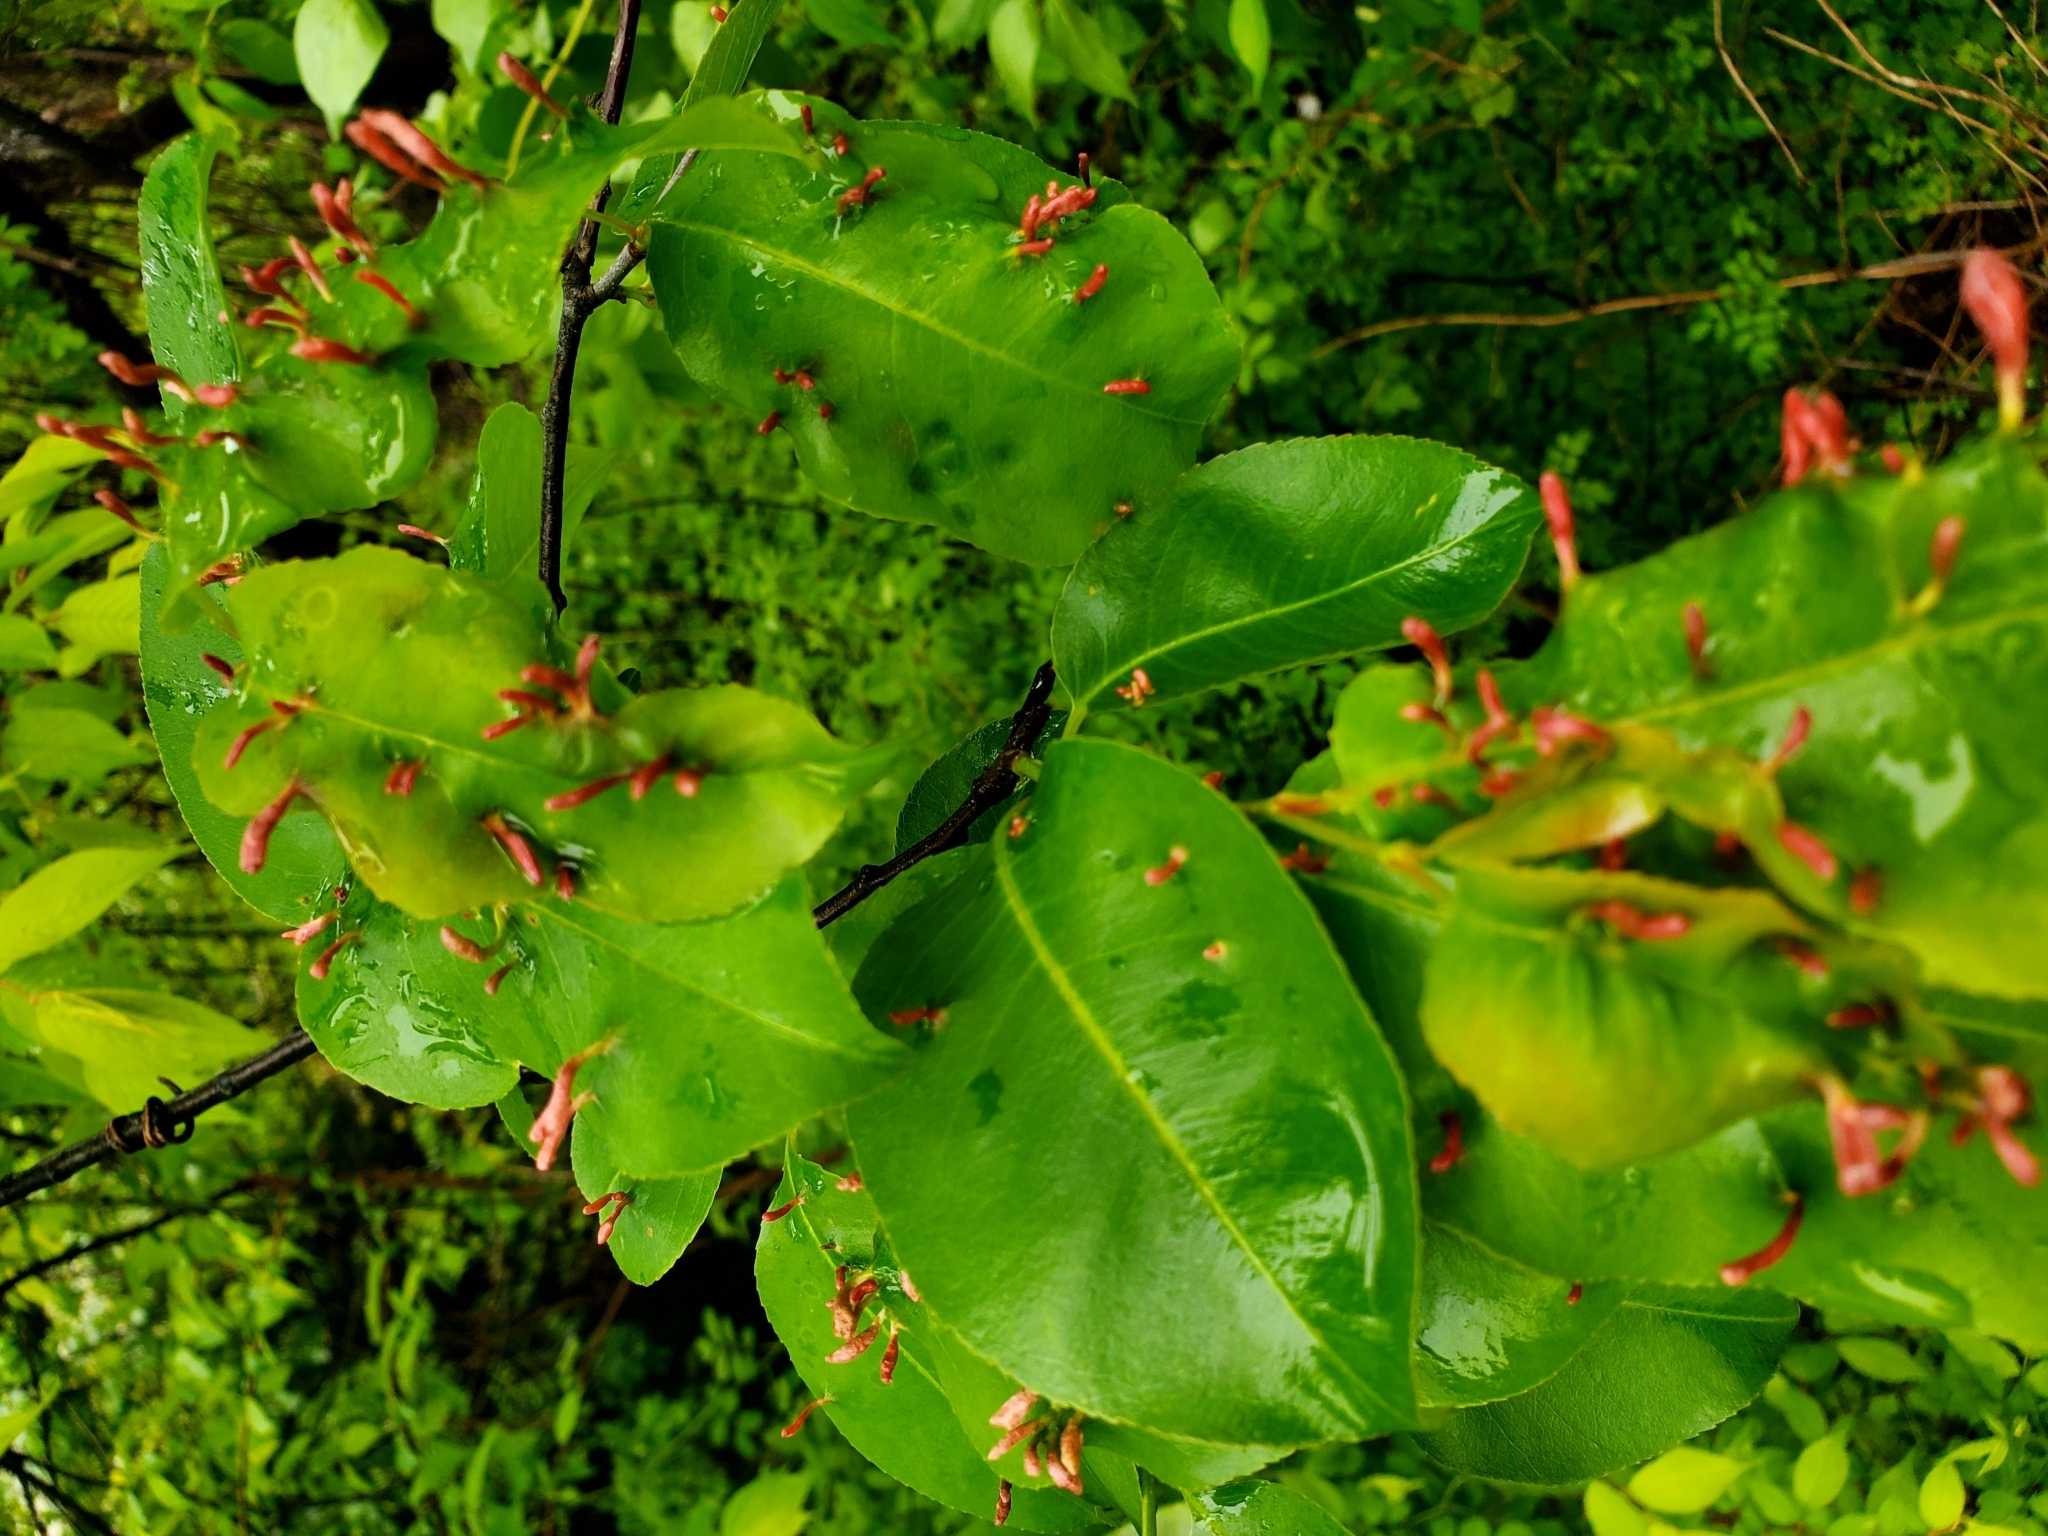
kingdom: Animalia
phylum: Arthropoda
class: Arachnida
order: Trombidiformes
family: Eriophyidae
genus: Eriophyes
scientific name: Eriophyes
